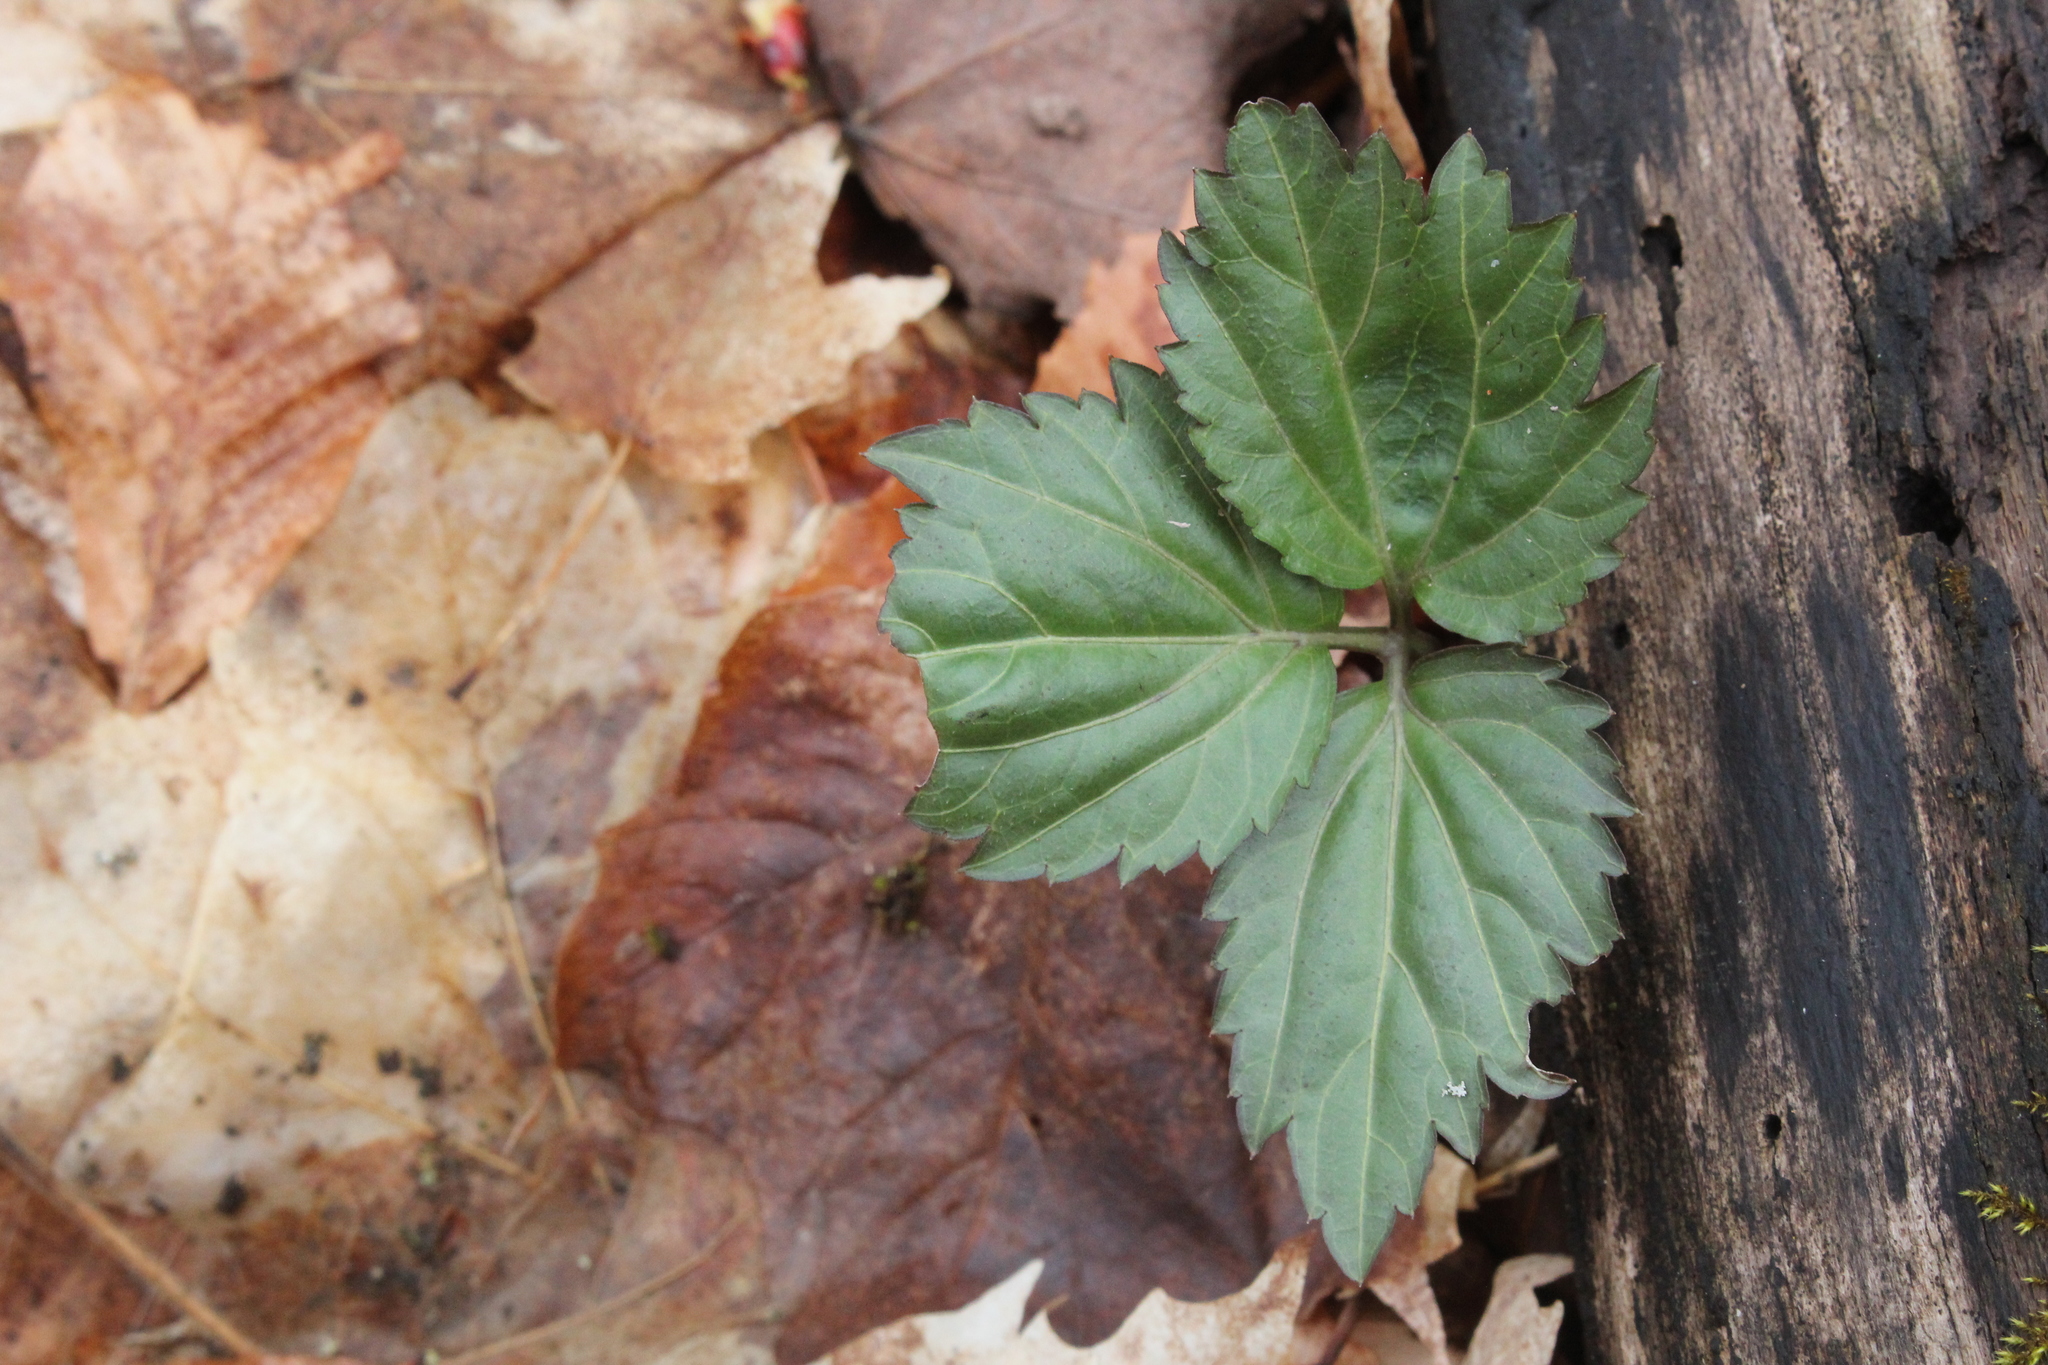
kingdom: Plantae
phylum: Tracheophyta
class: Magnoliopsida
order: Brassicales
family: Brassicaceae
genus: Cardamine
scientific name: Cardamine diphylla
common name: Broad-leaved toothwort
